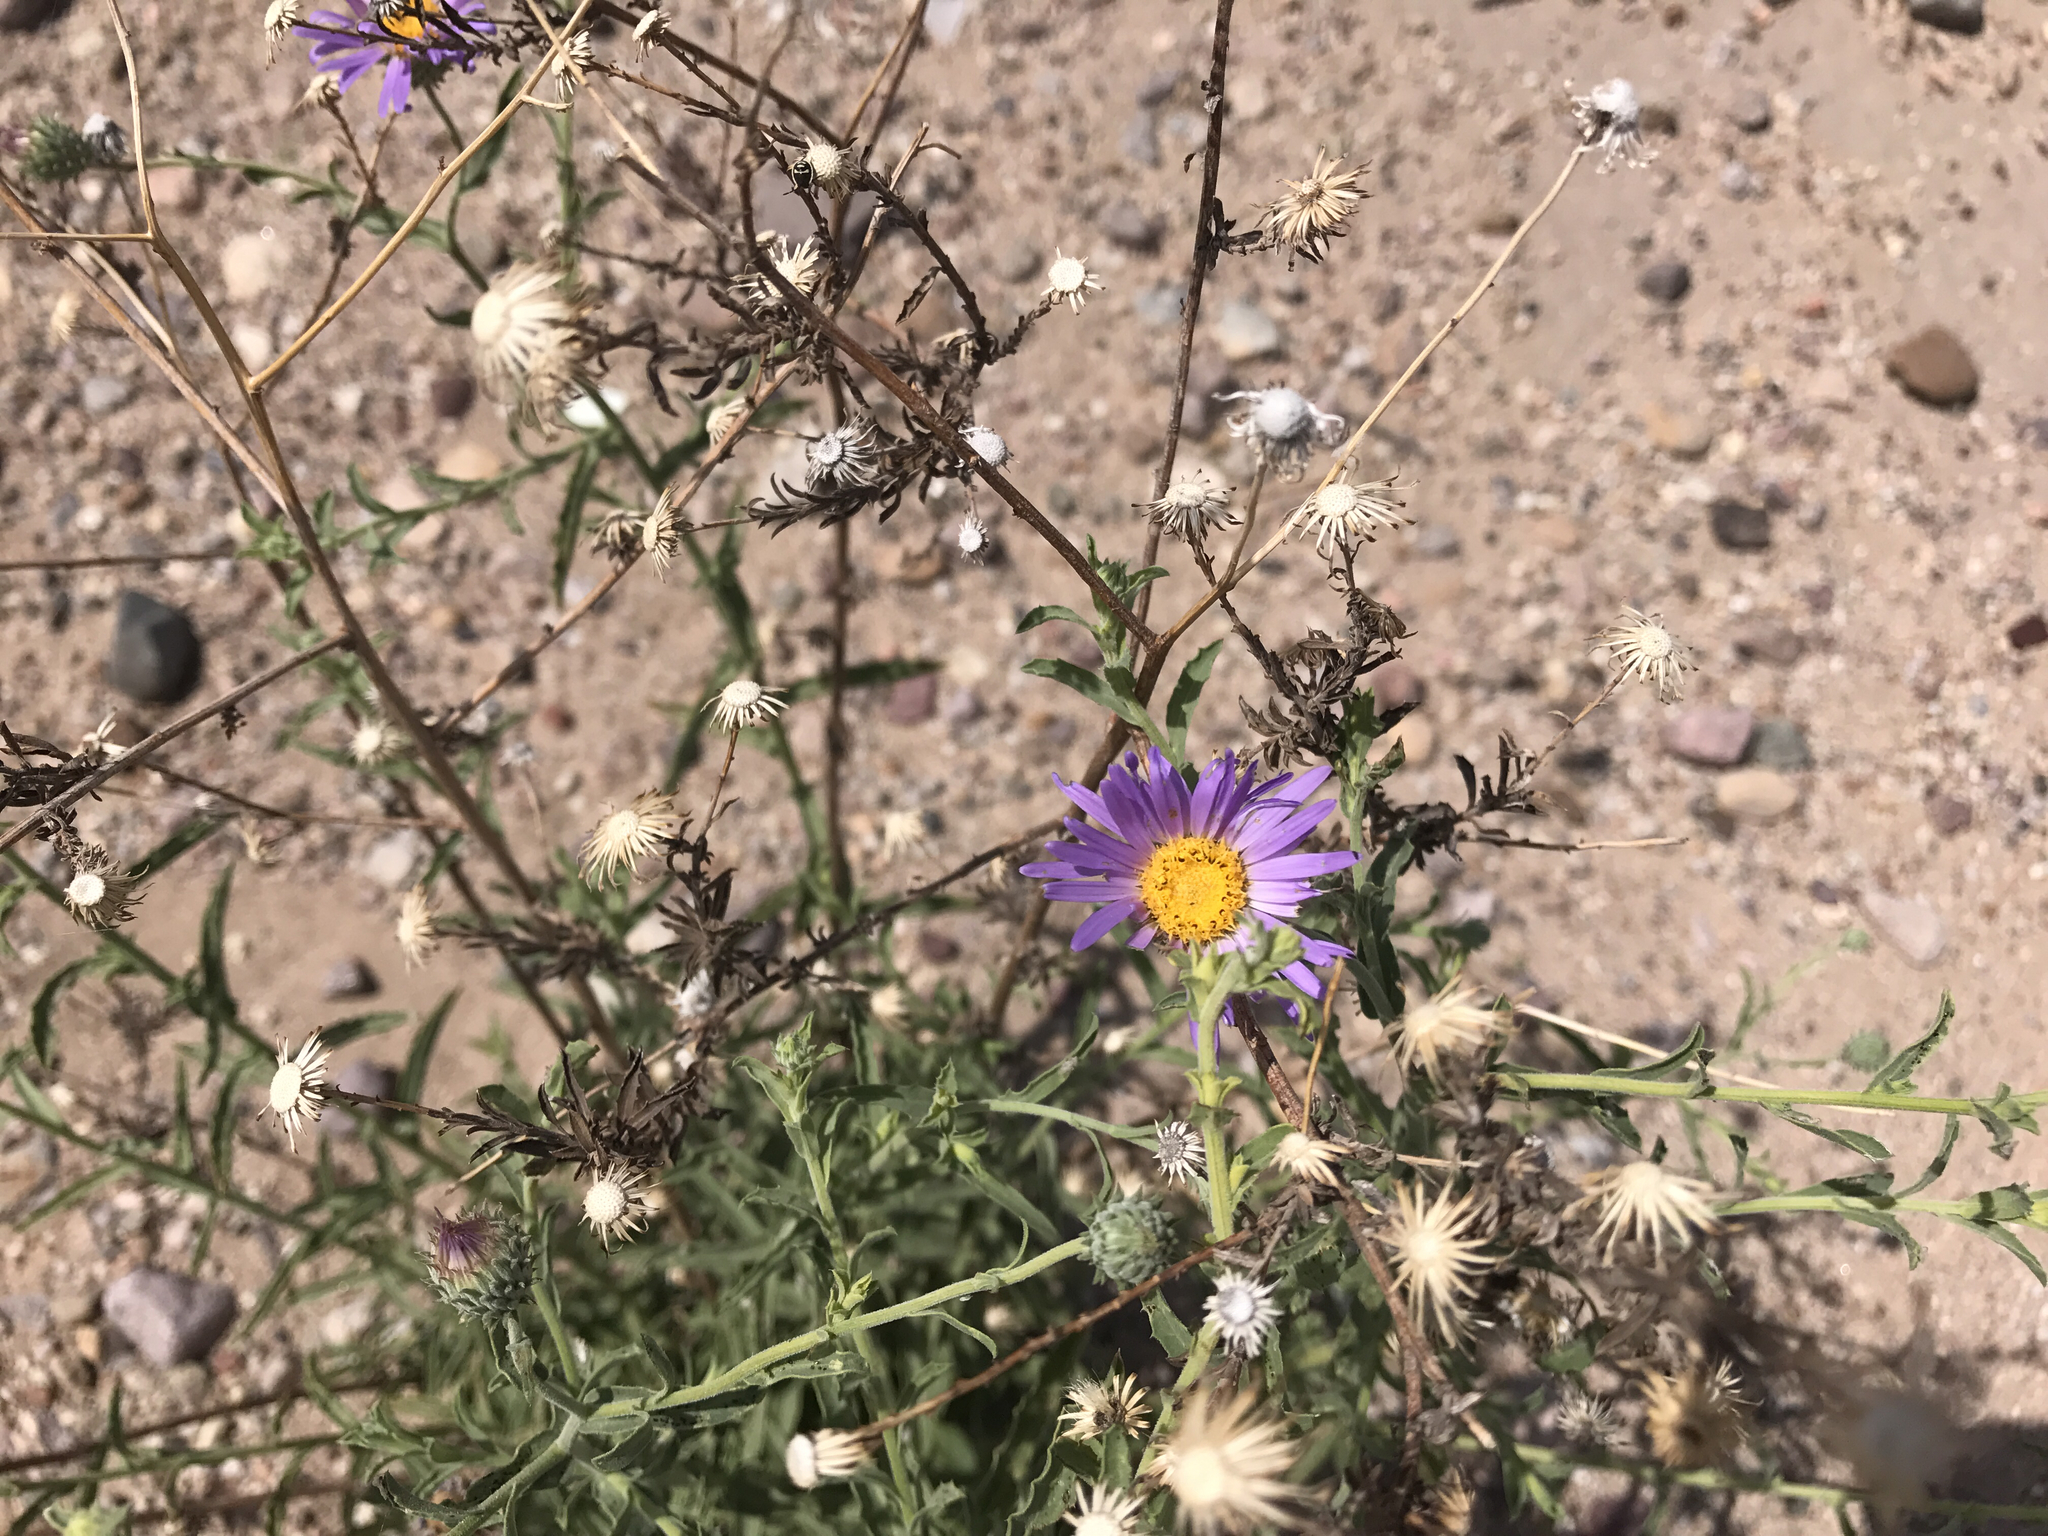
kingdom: Plantae
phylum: Tracheophyta
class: Magnoliopsida
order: Asterales
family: Asteraceae
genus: Machaeranthera
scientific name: Machaeranthera tanacetifolia
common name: Tansy-aster
